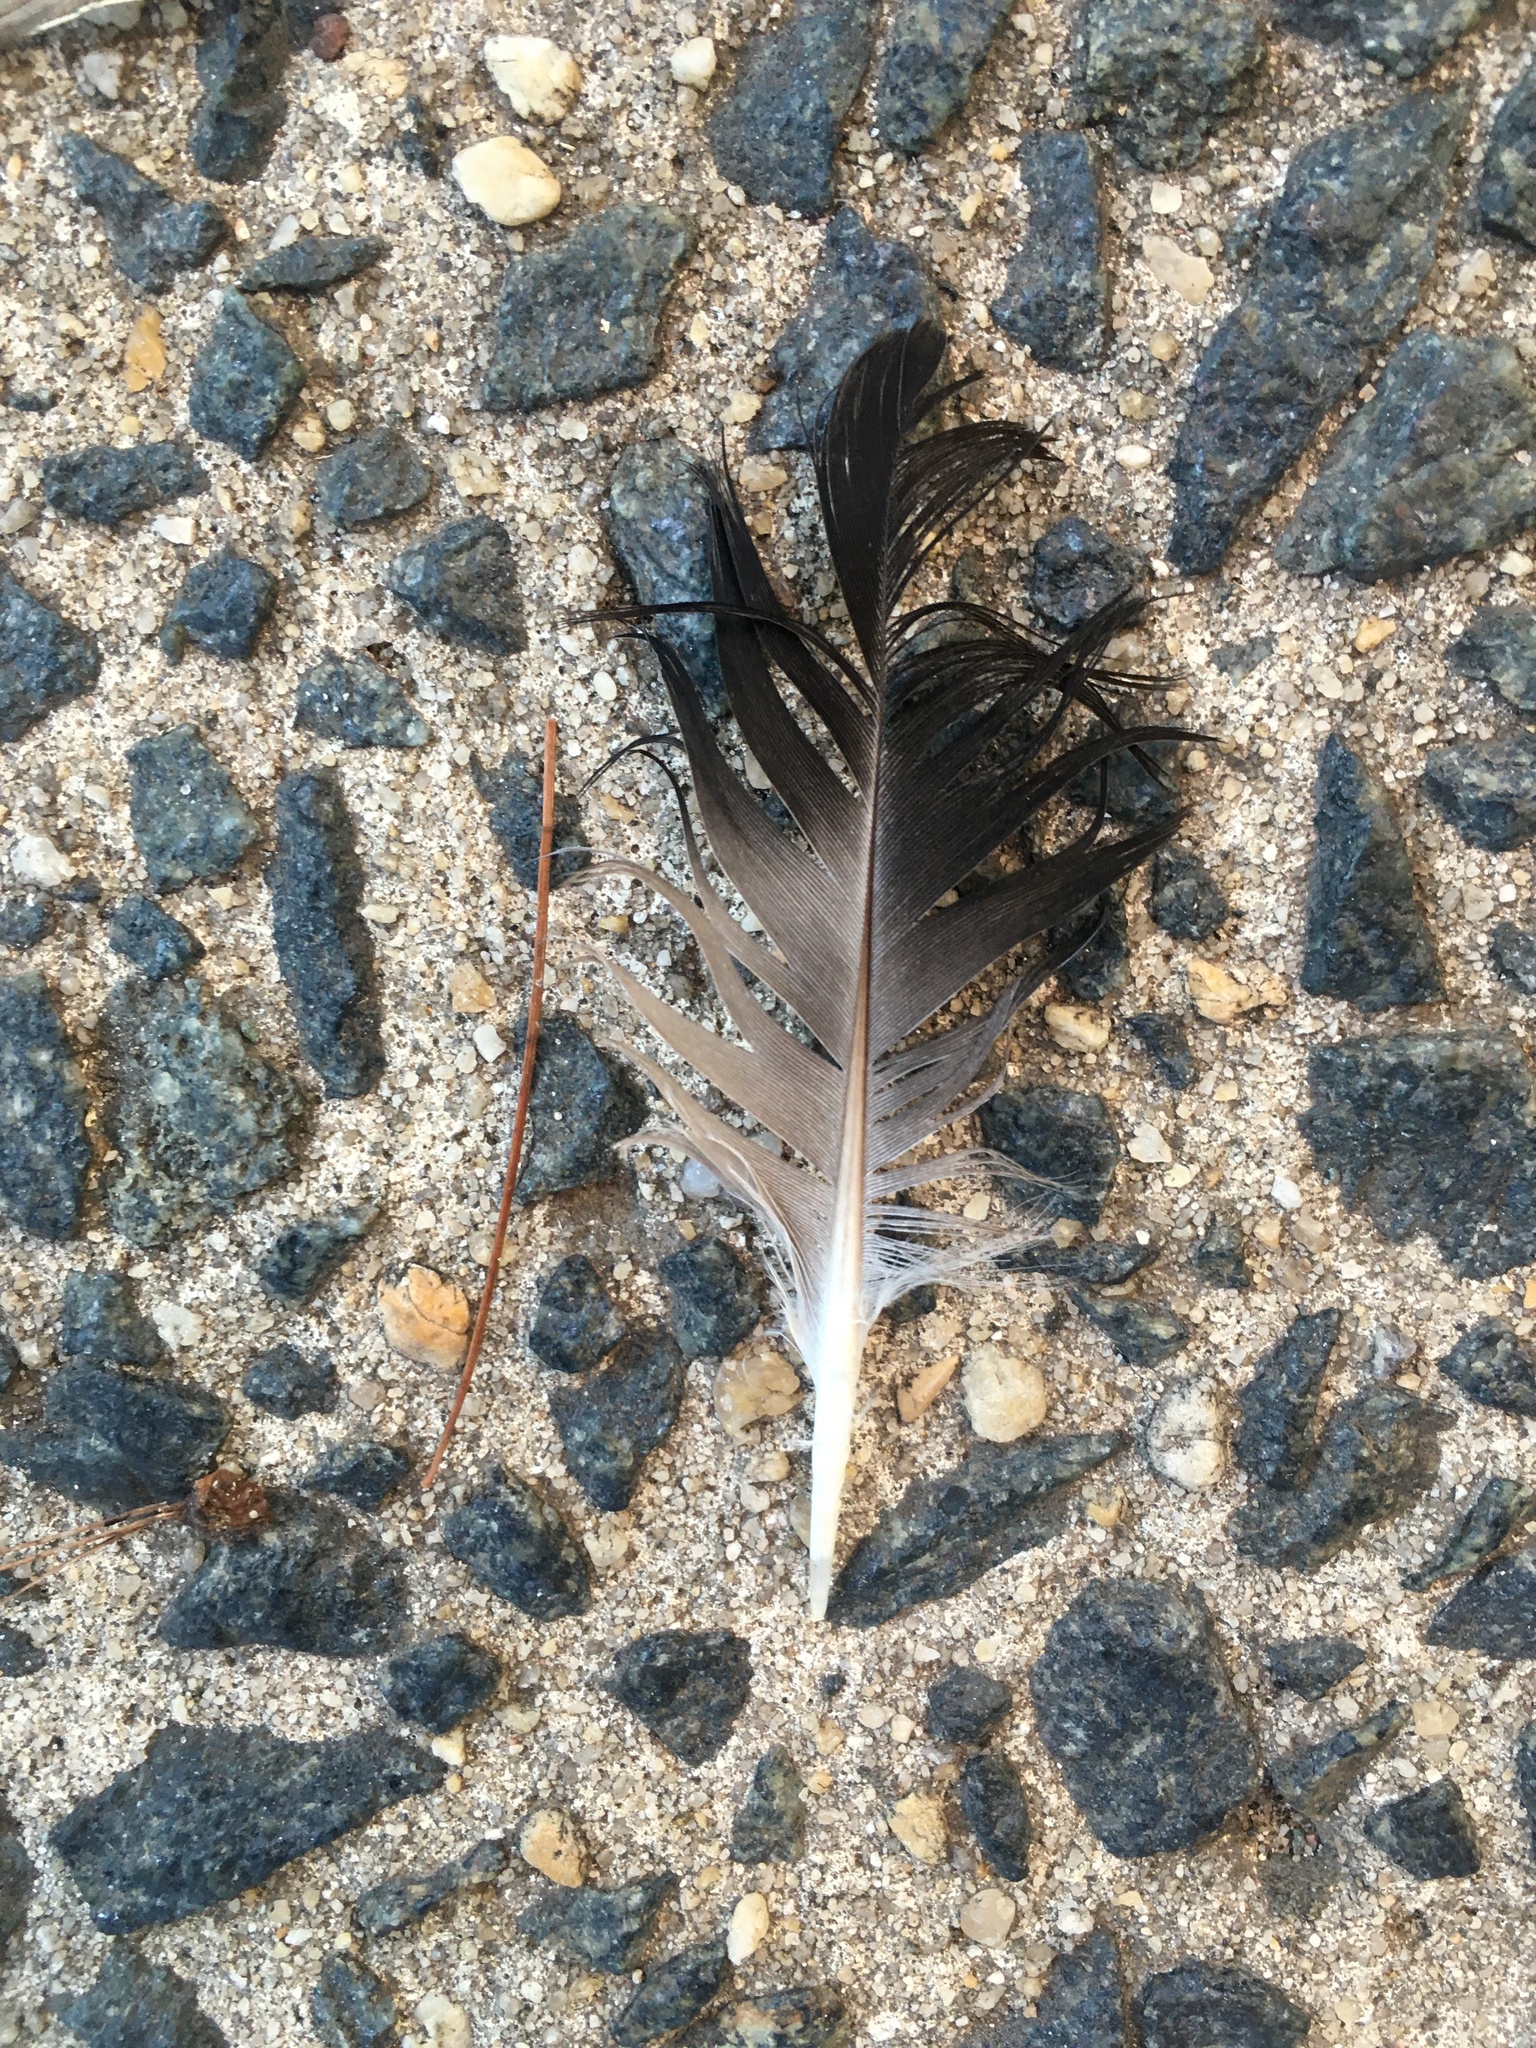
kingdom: Animalia
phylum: Chordata
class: Aves
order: Columbiformes
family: Columbidae
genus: Columba
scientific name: Columba livia
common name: Rock pigeon
